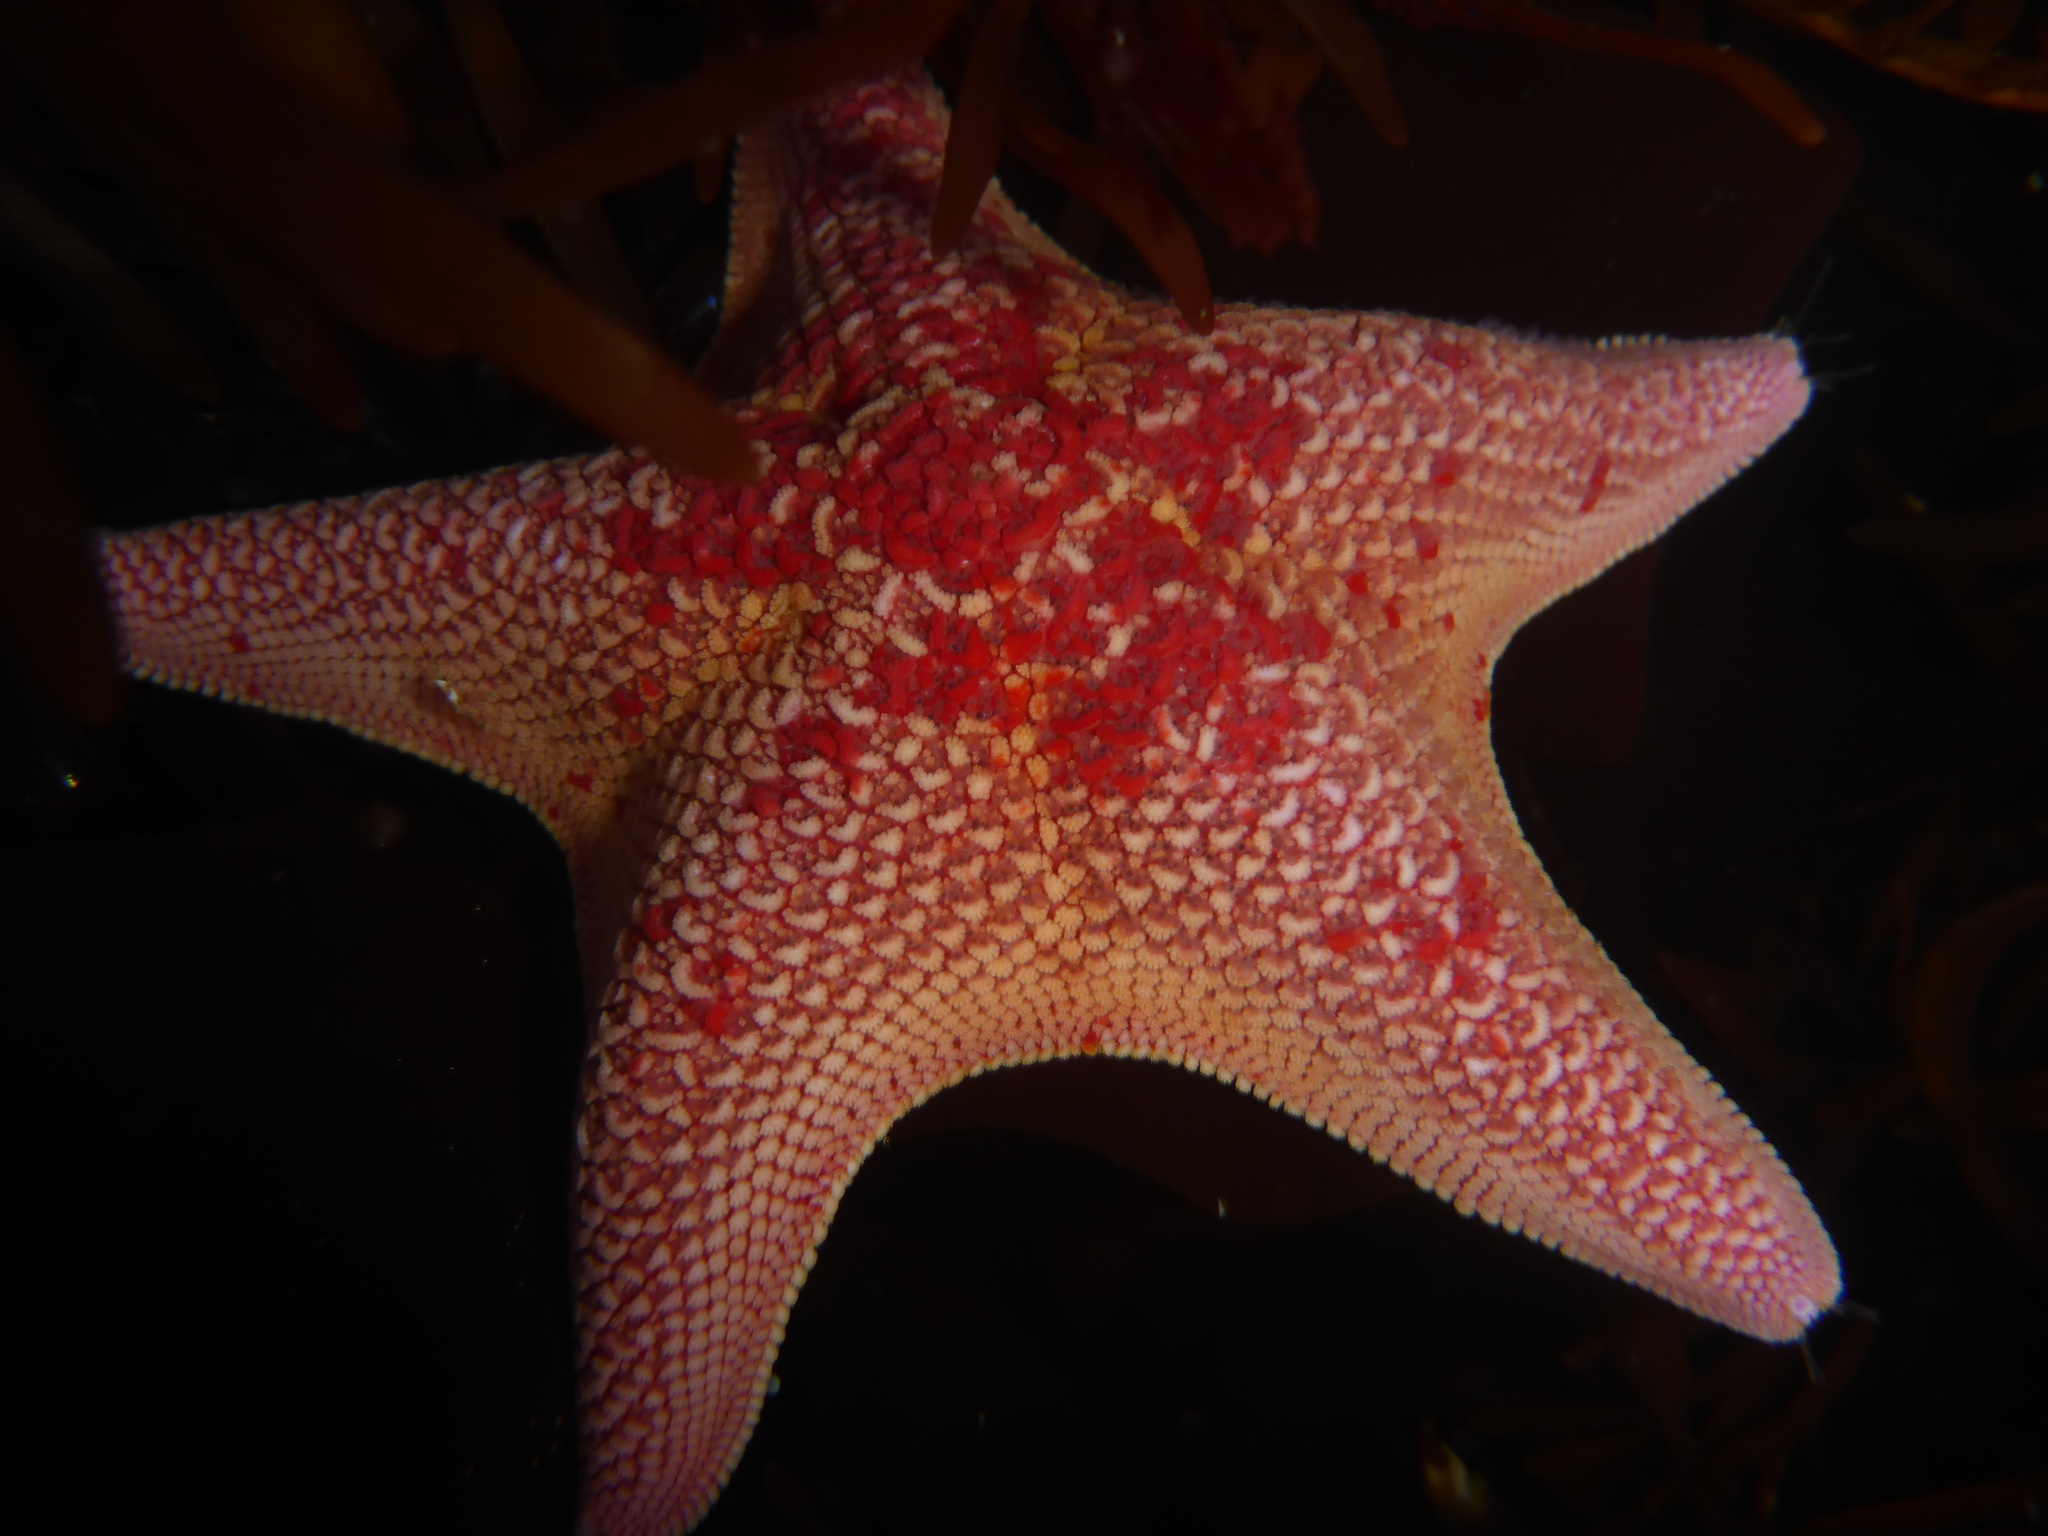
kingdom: Animalia
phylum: Echinodermata
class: Asteroidea
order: Valvatida
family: Asterinidae
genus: Patiria
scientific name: Patiria miniata
